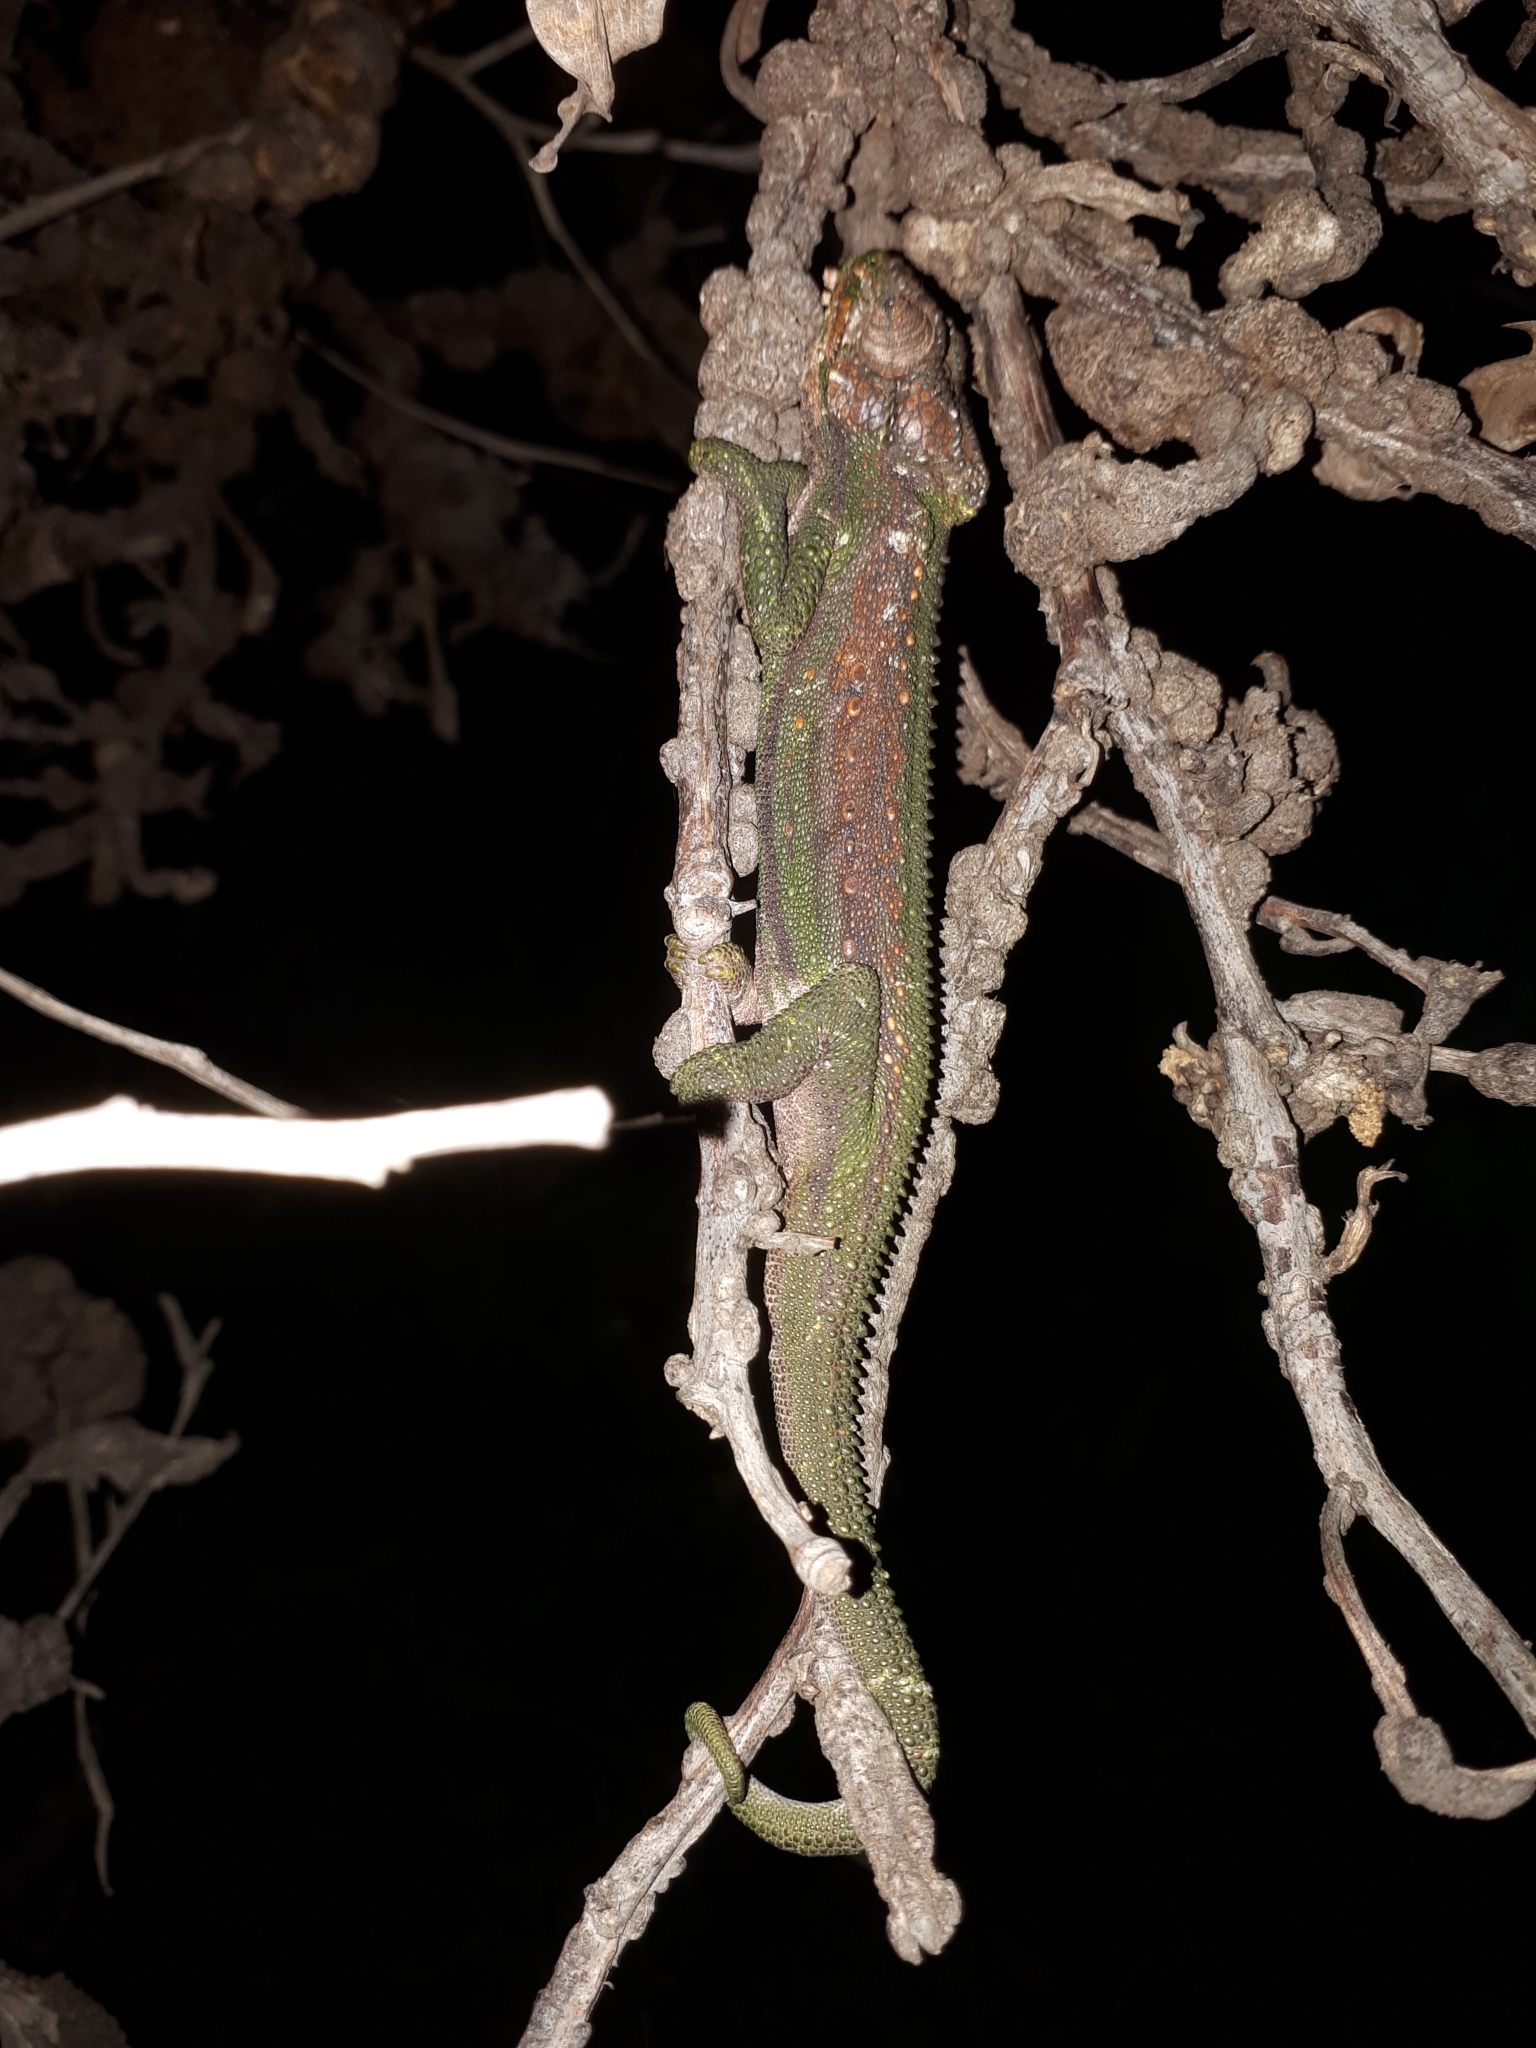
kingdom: Animalia
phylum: Chordata
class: Squamata
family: Chamaeleonidae
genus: Bradypodion
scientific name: Bradypodion pumilum
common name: Cape dwarf chameleon
